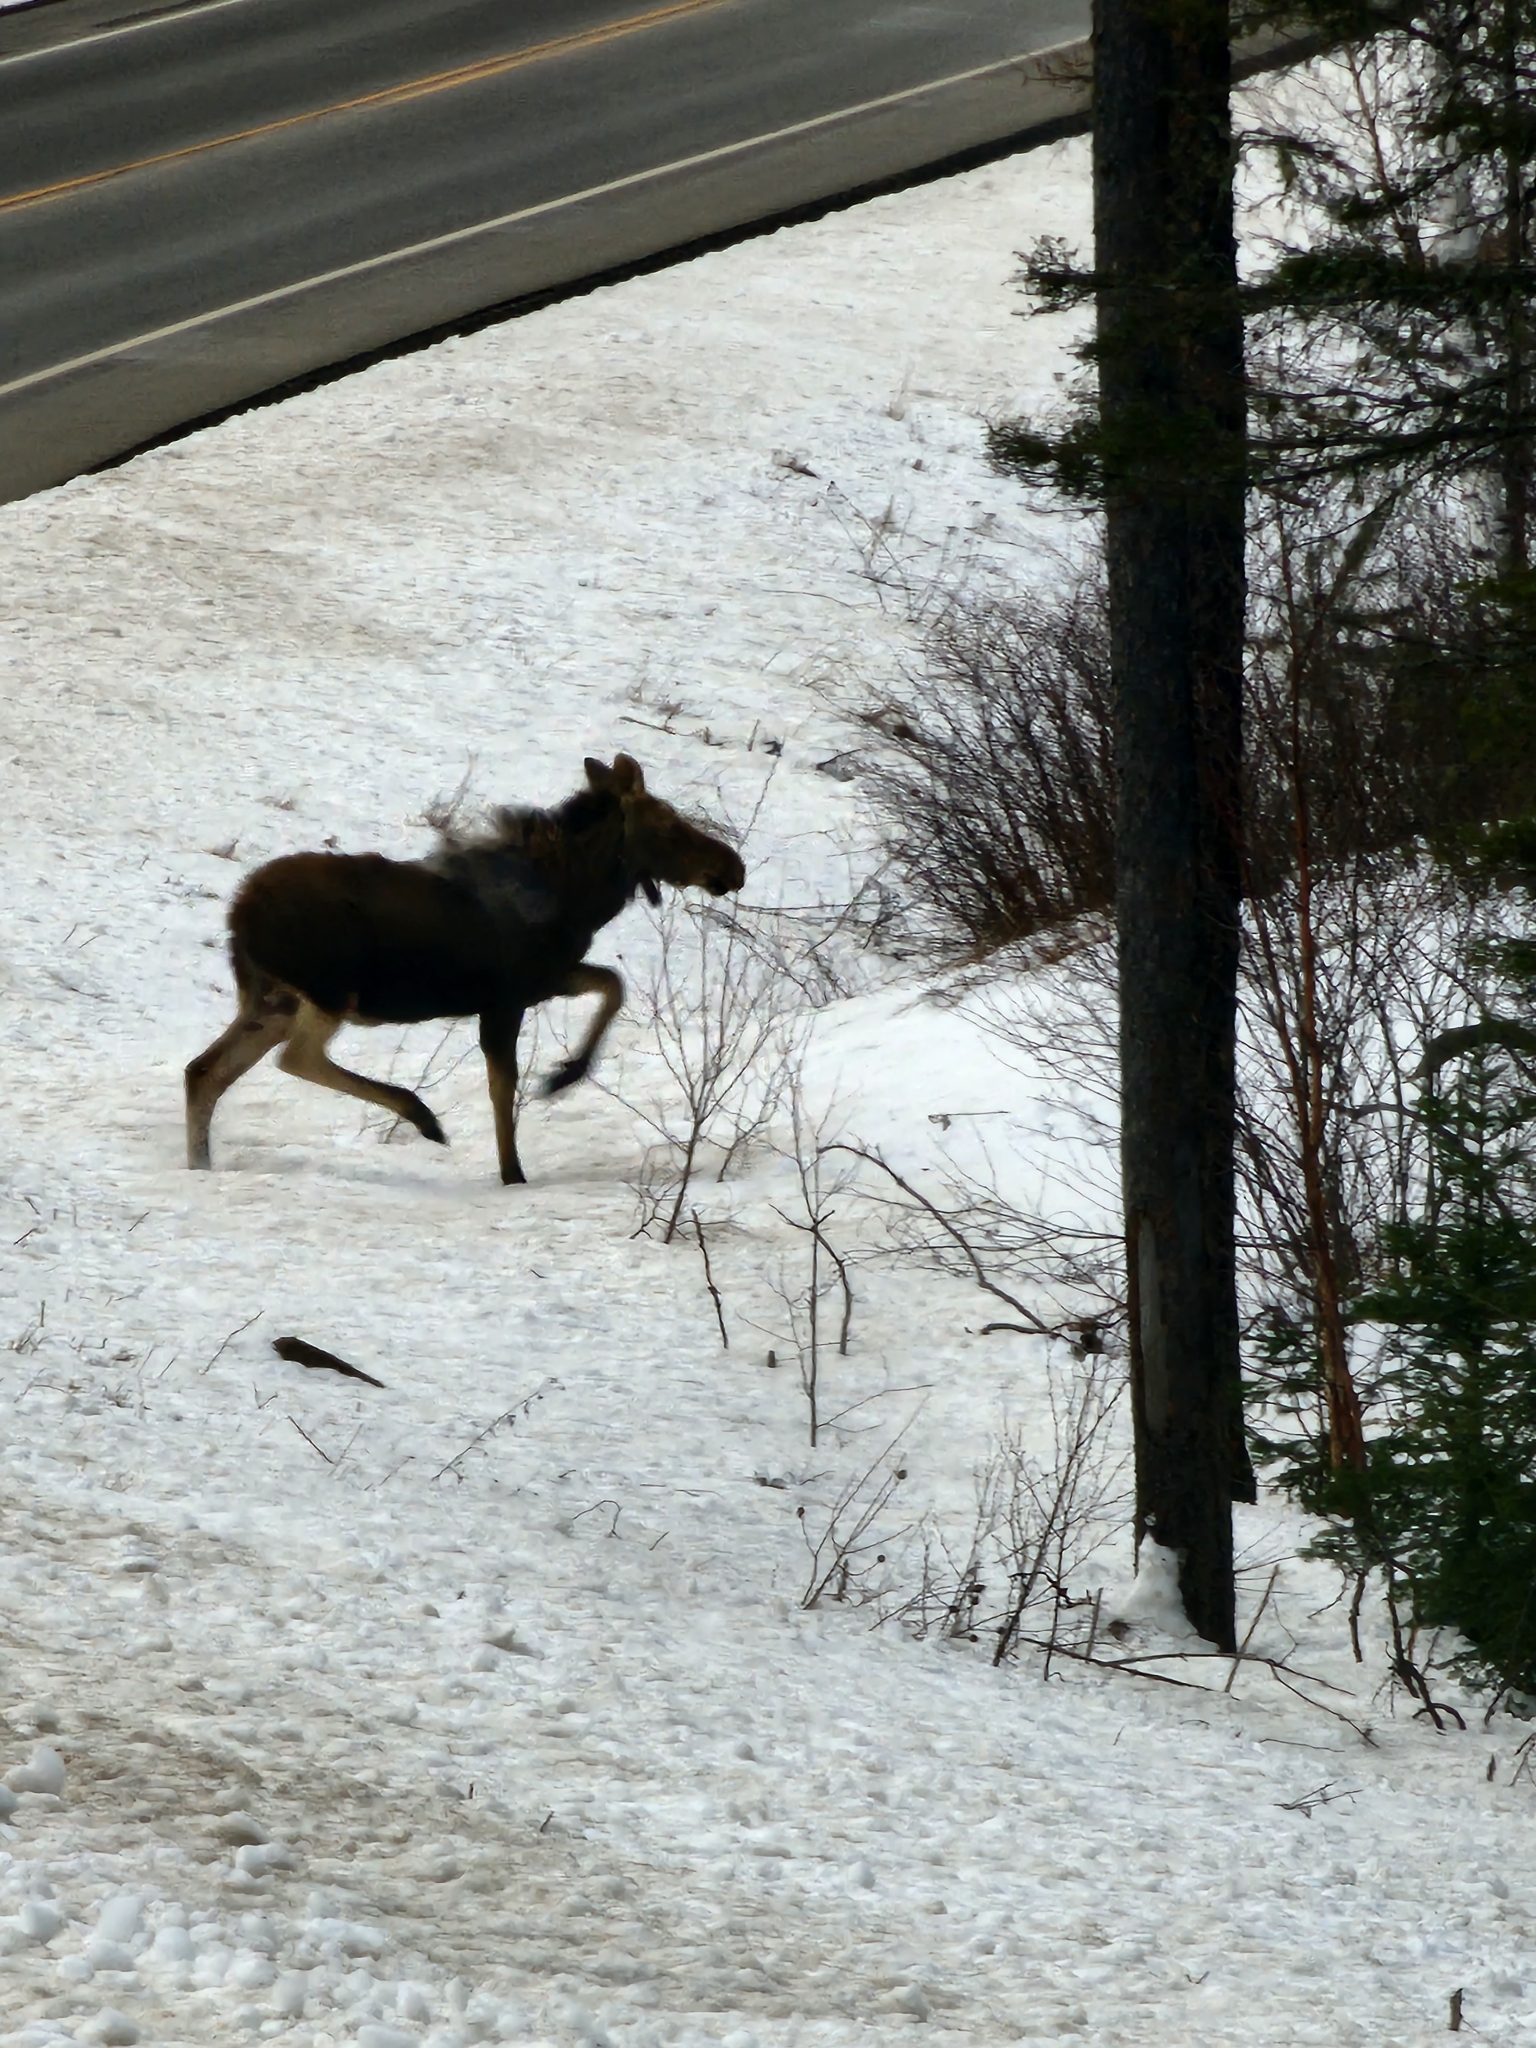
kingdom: Animalia
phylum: Chordata
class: Mammalia
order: Artiodactyla
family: Cervidae
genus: Alces
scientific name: Alces alces
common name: Moose
